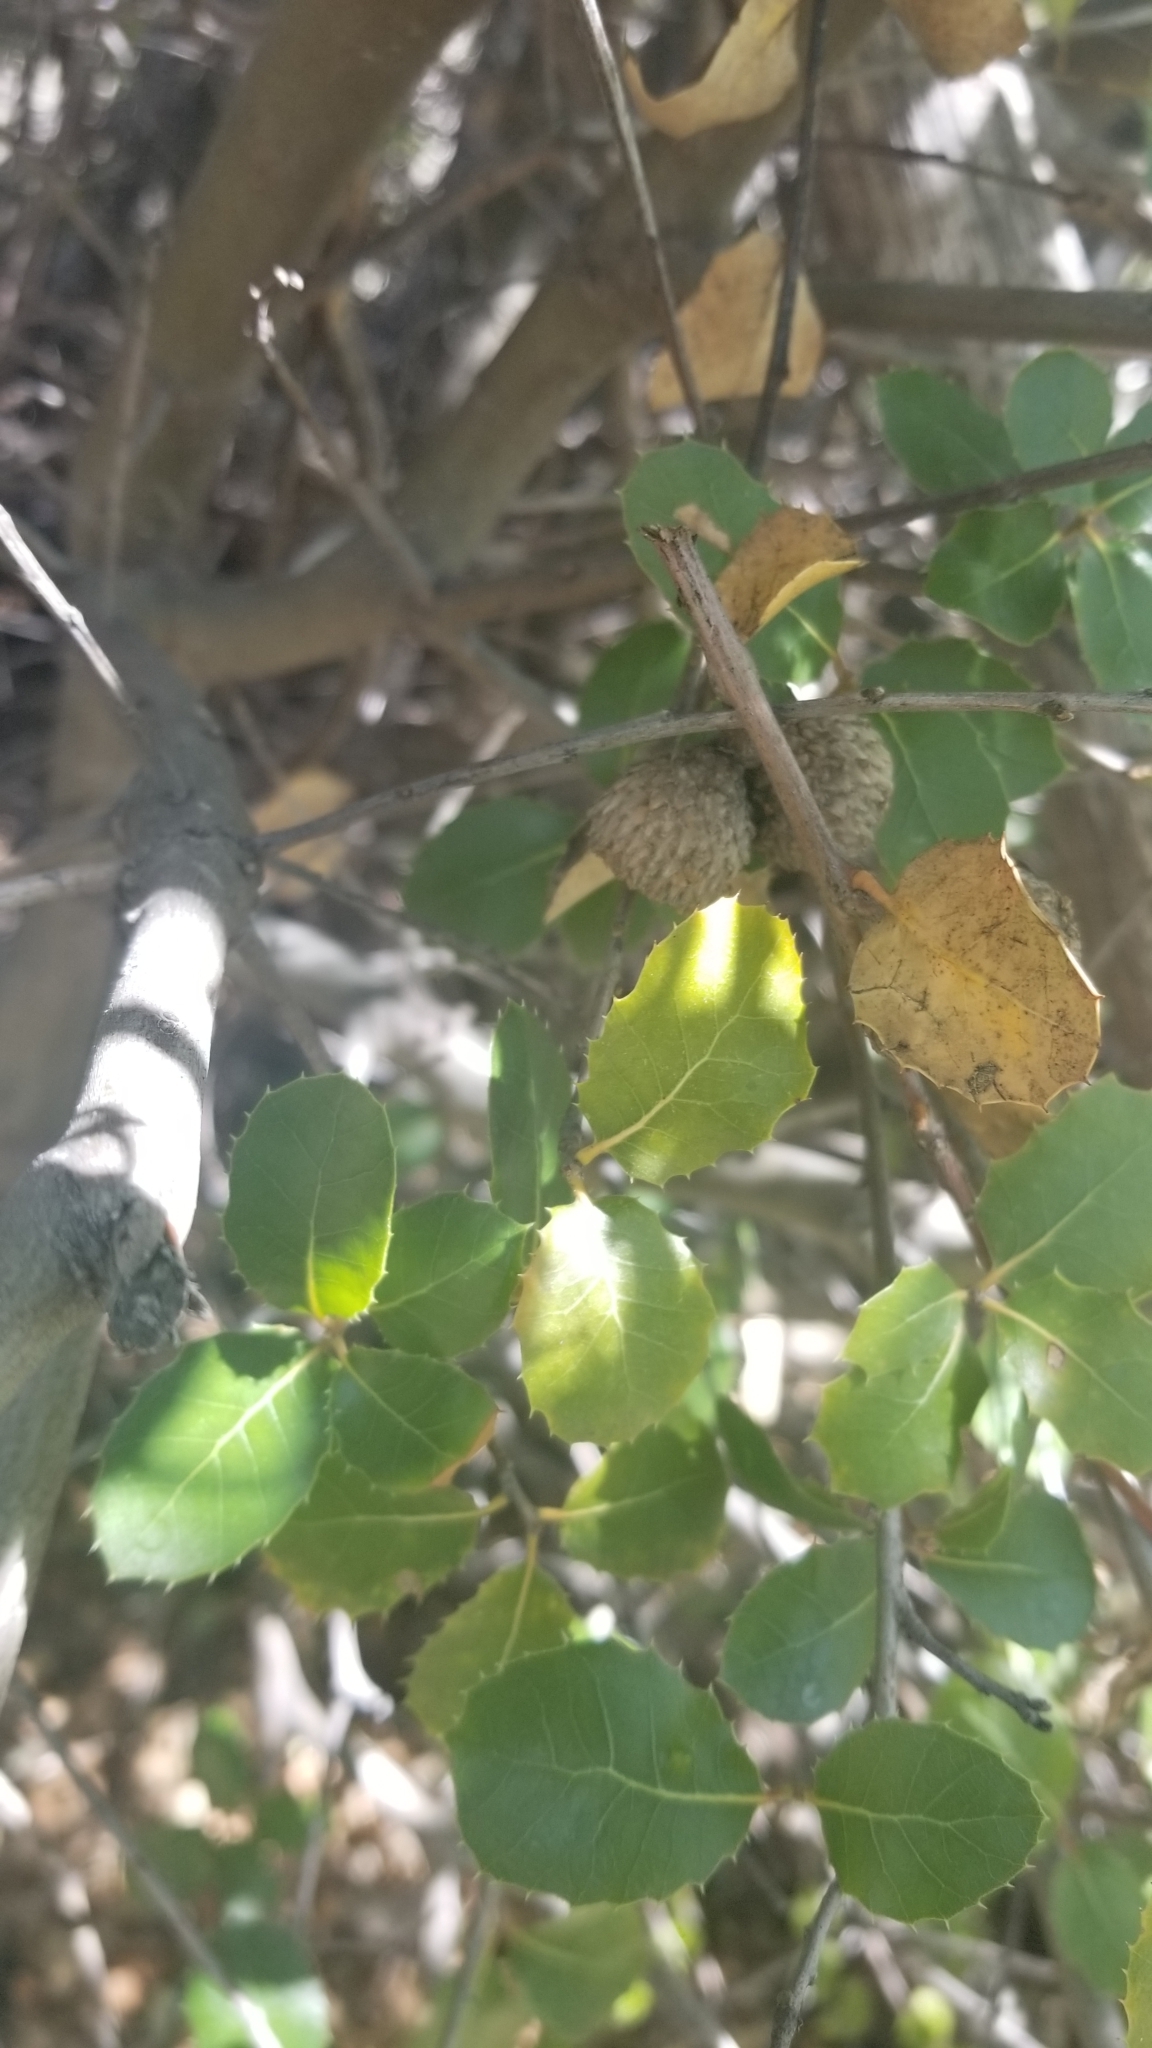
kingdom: Plantae
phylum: Tracheophyta
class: Magnoliopsida
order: Fagales
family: Fagaceae
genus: Quercus
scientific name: Quercus wislizeni
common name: Interior live oak
